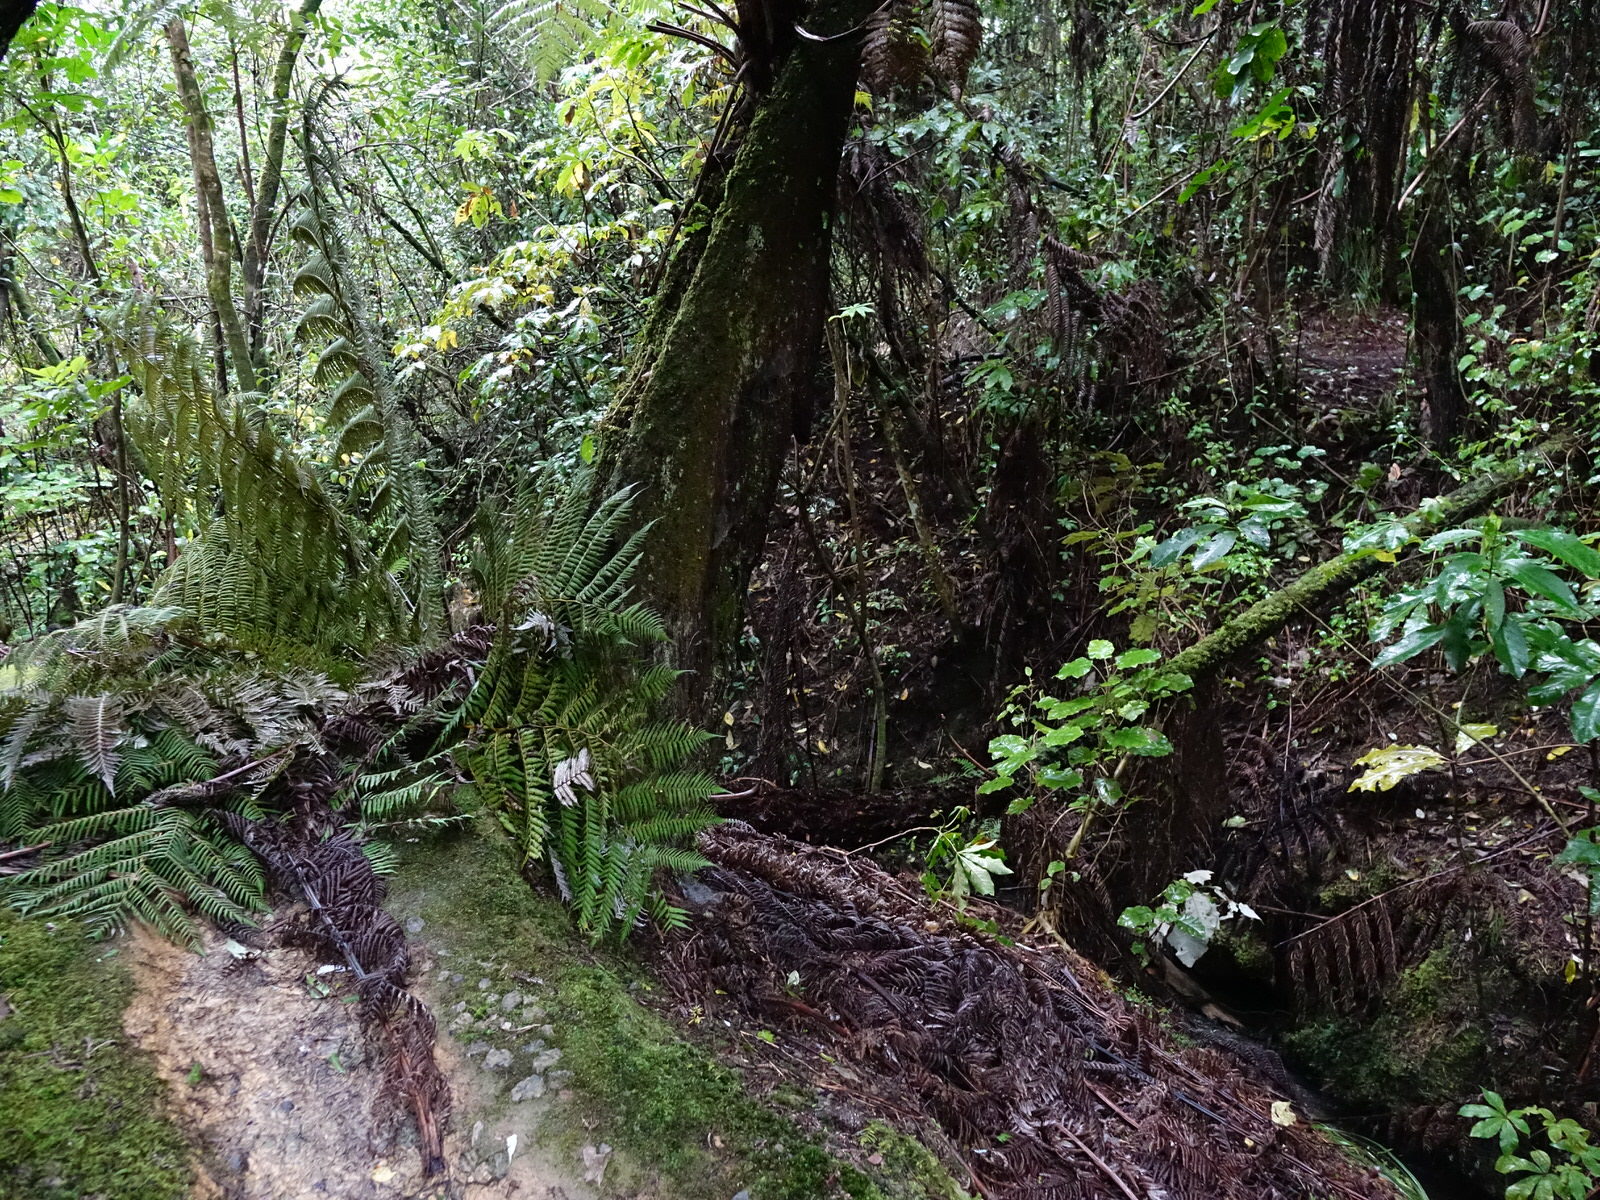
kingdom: Plantae
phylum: Tracheophyta
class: Polypodiopsida
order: Cyatheales
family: Cyatheaceae
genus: Alsophila
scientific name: Alsophila dealbata
